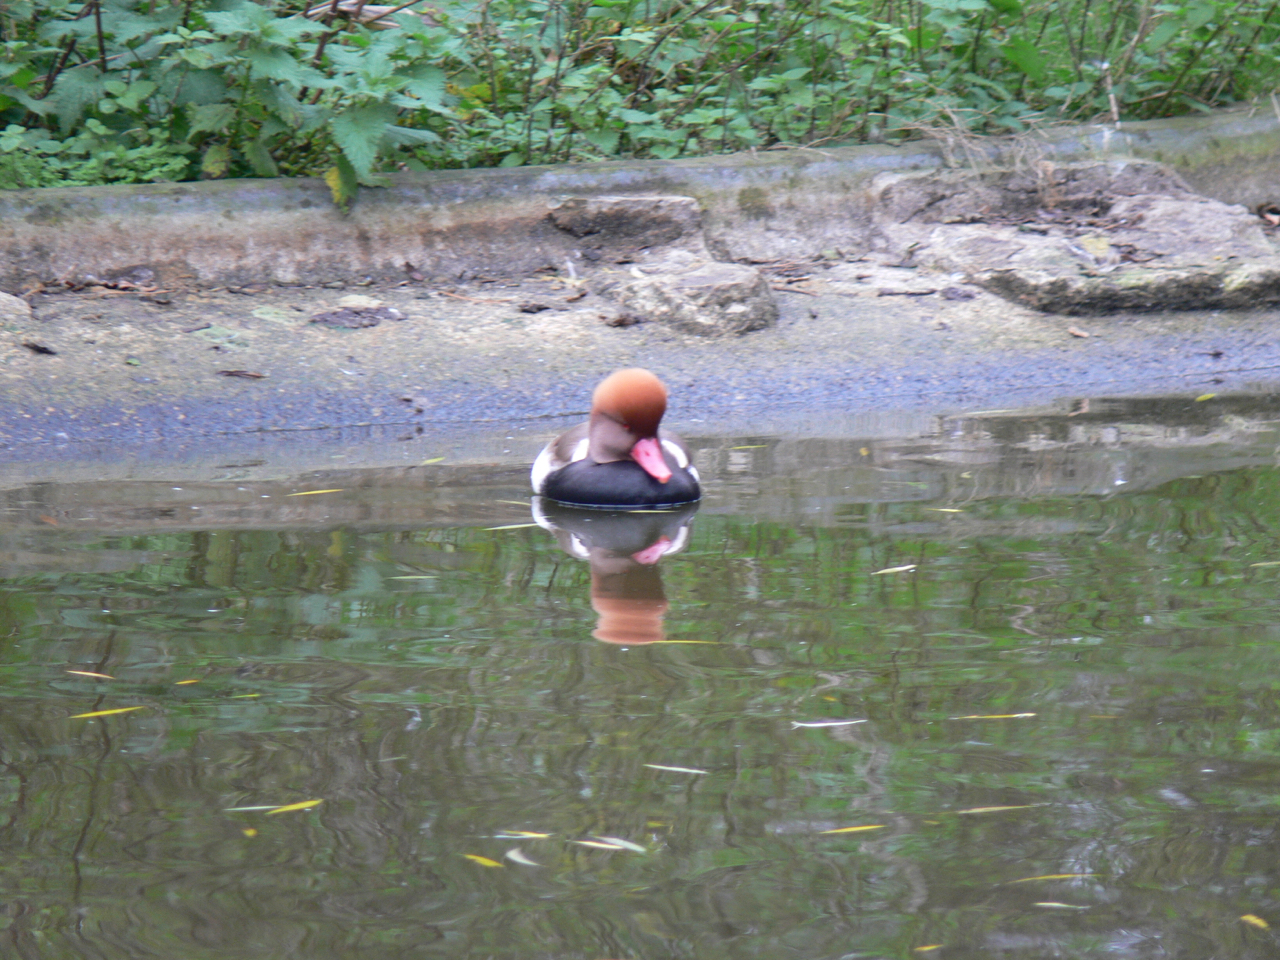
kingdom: Animalia
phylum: Chordata
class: Aves
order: Anseriformes
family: Anatidae
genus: Netta
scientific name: Netta rufina
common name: Red-crested pochard
